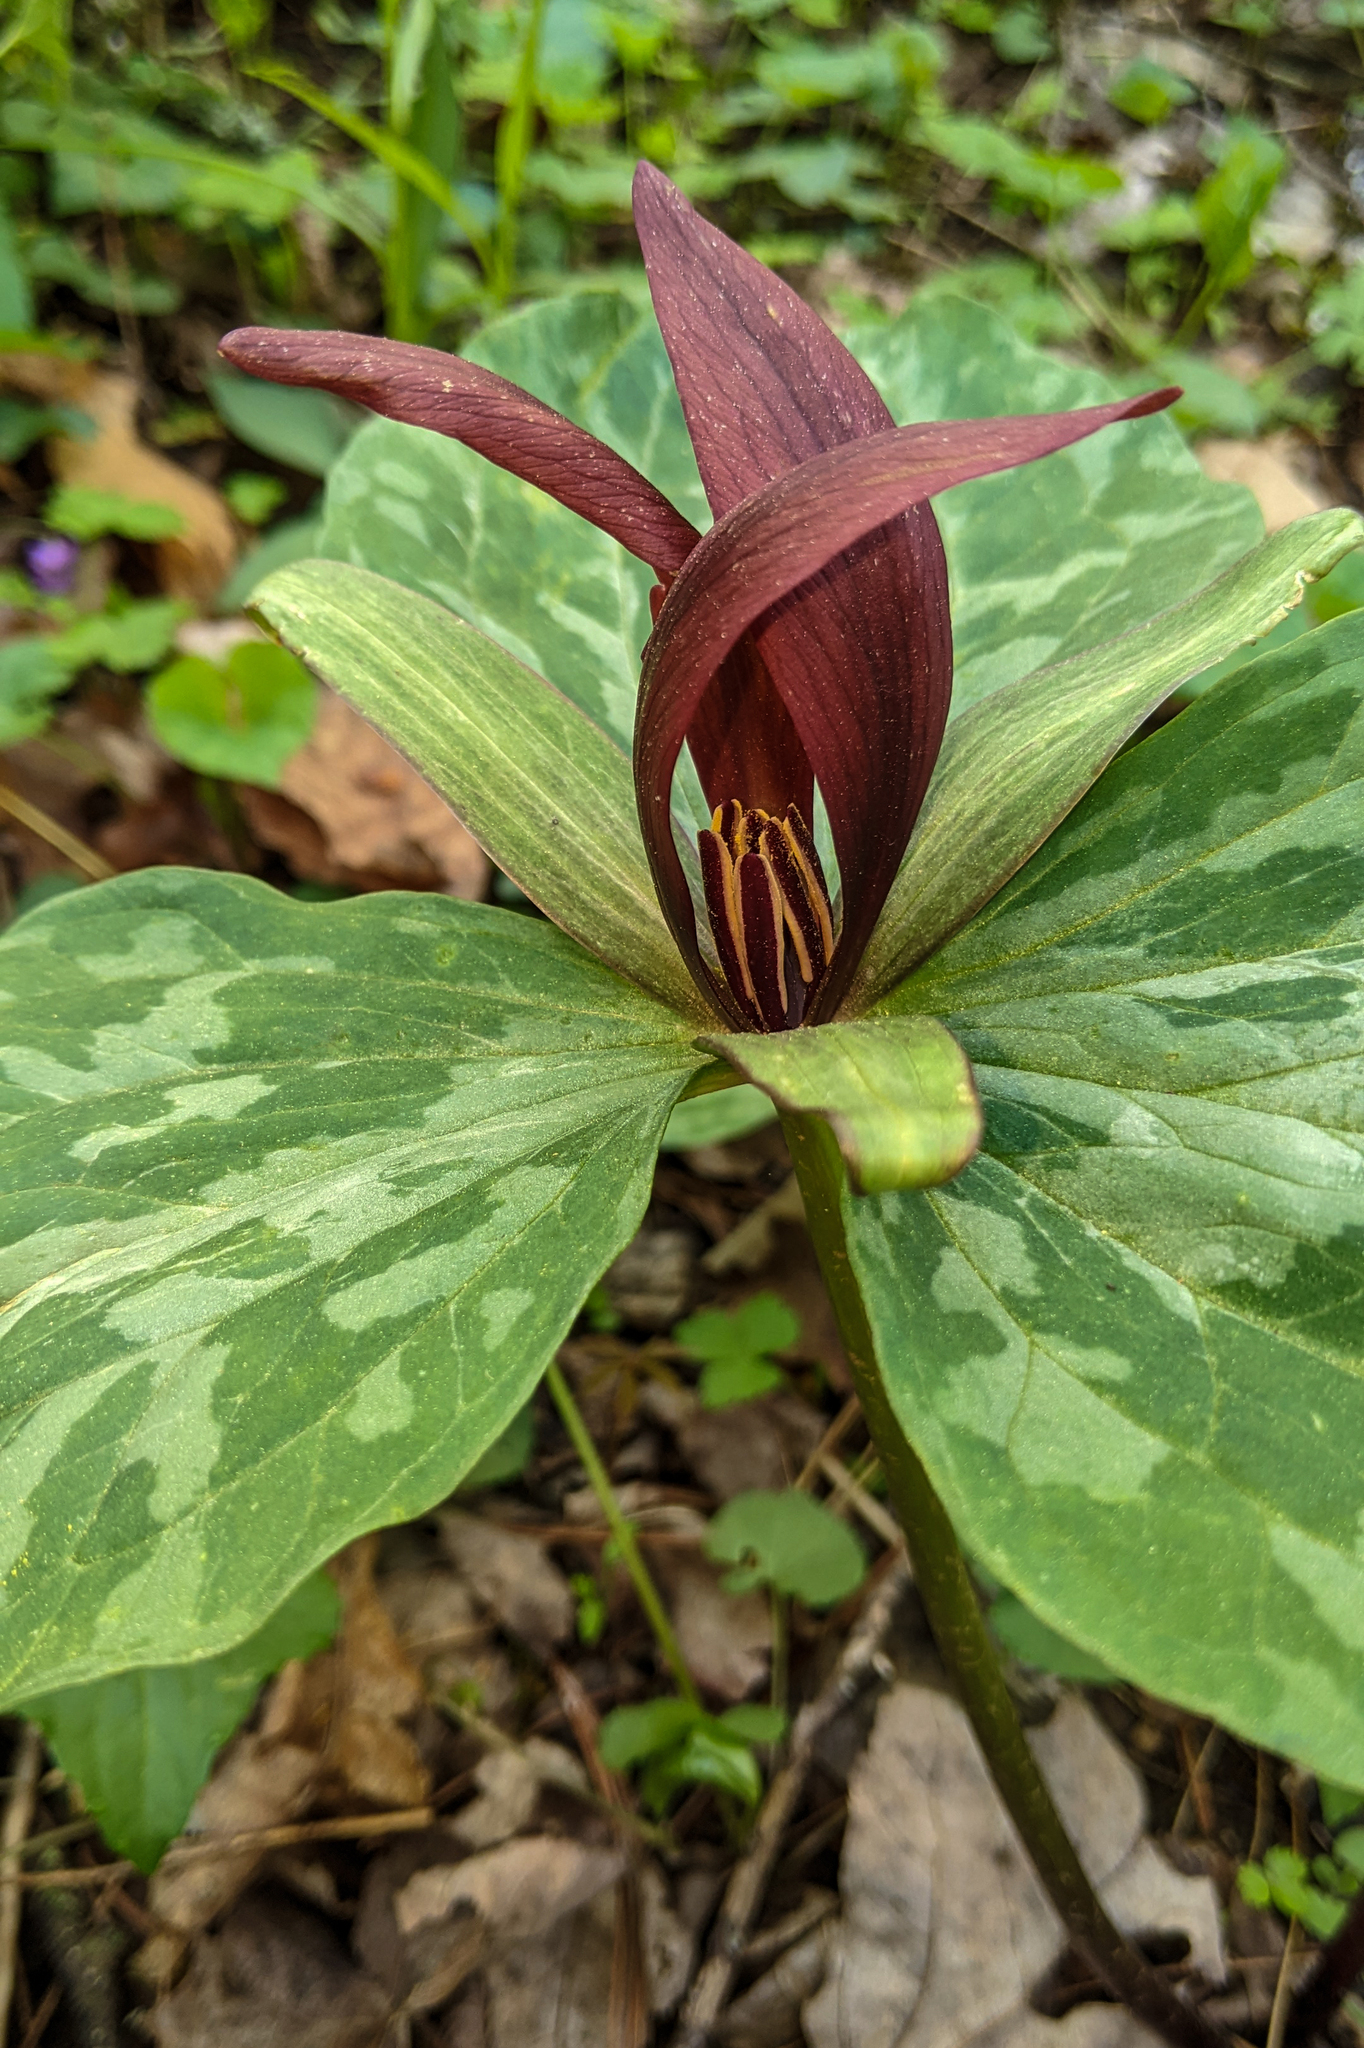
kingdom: Plantae
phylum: Tracheophyta
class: Liliopsida
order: Liliales
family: Melanthiaceae
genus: Trillium
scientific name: Trillium cuneatum
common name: Cuneate trillium
